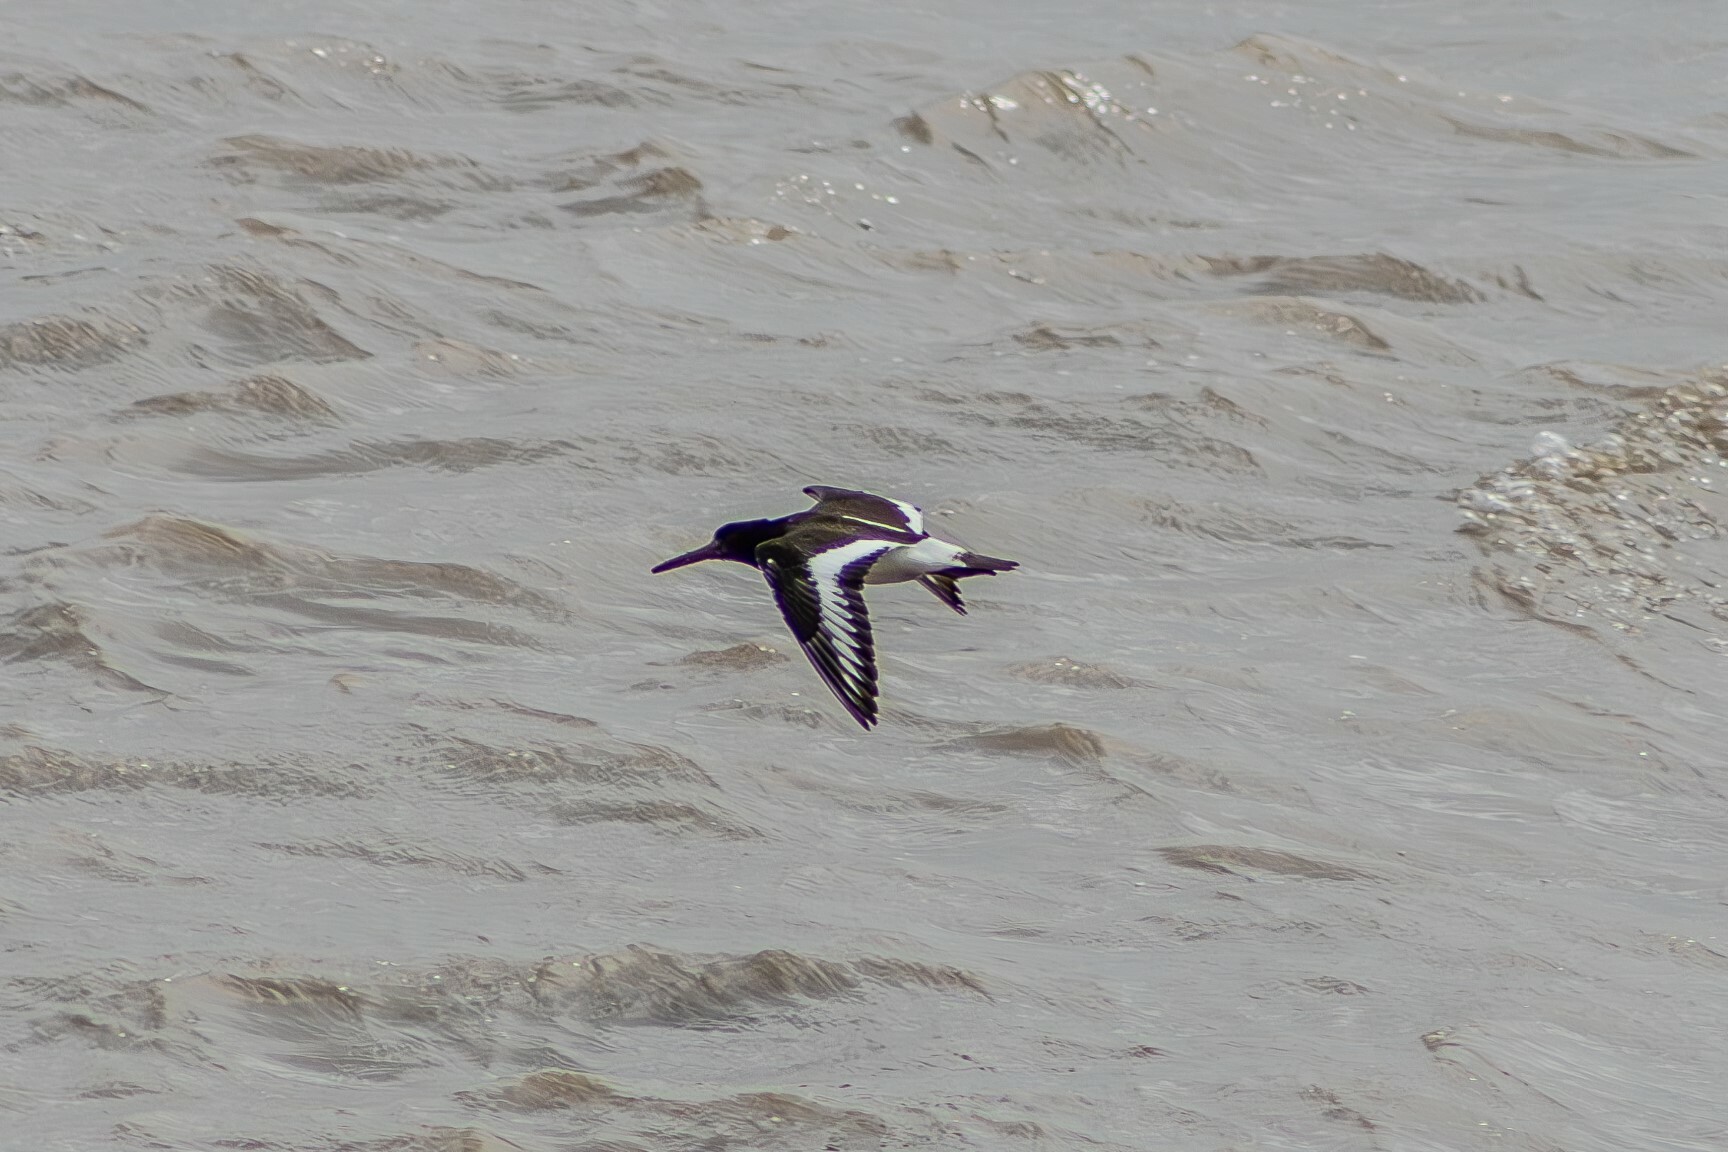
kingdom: Animalia
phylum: Chordata
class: Aves
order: Charadriiformes
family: Haematopodidae
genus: Haematopus
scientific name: Haematopus ostralegus
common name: Eurasian oystercatcher
